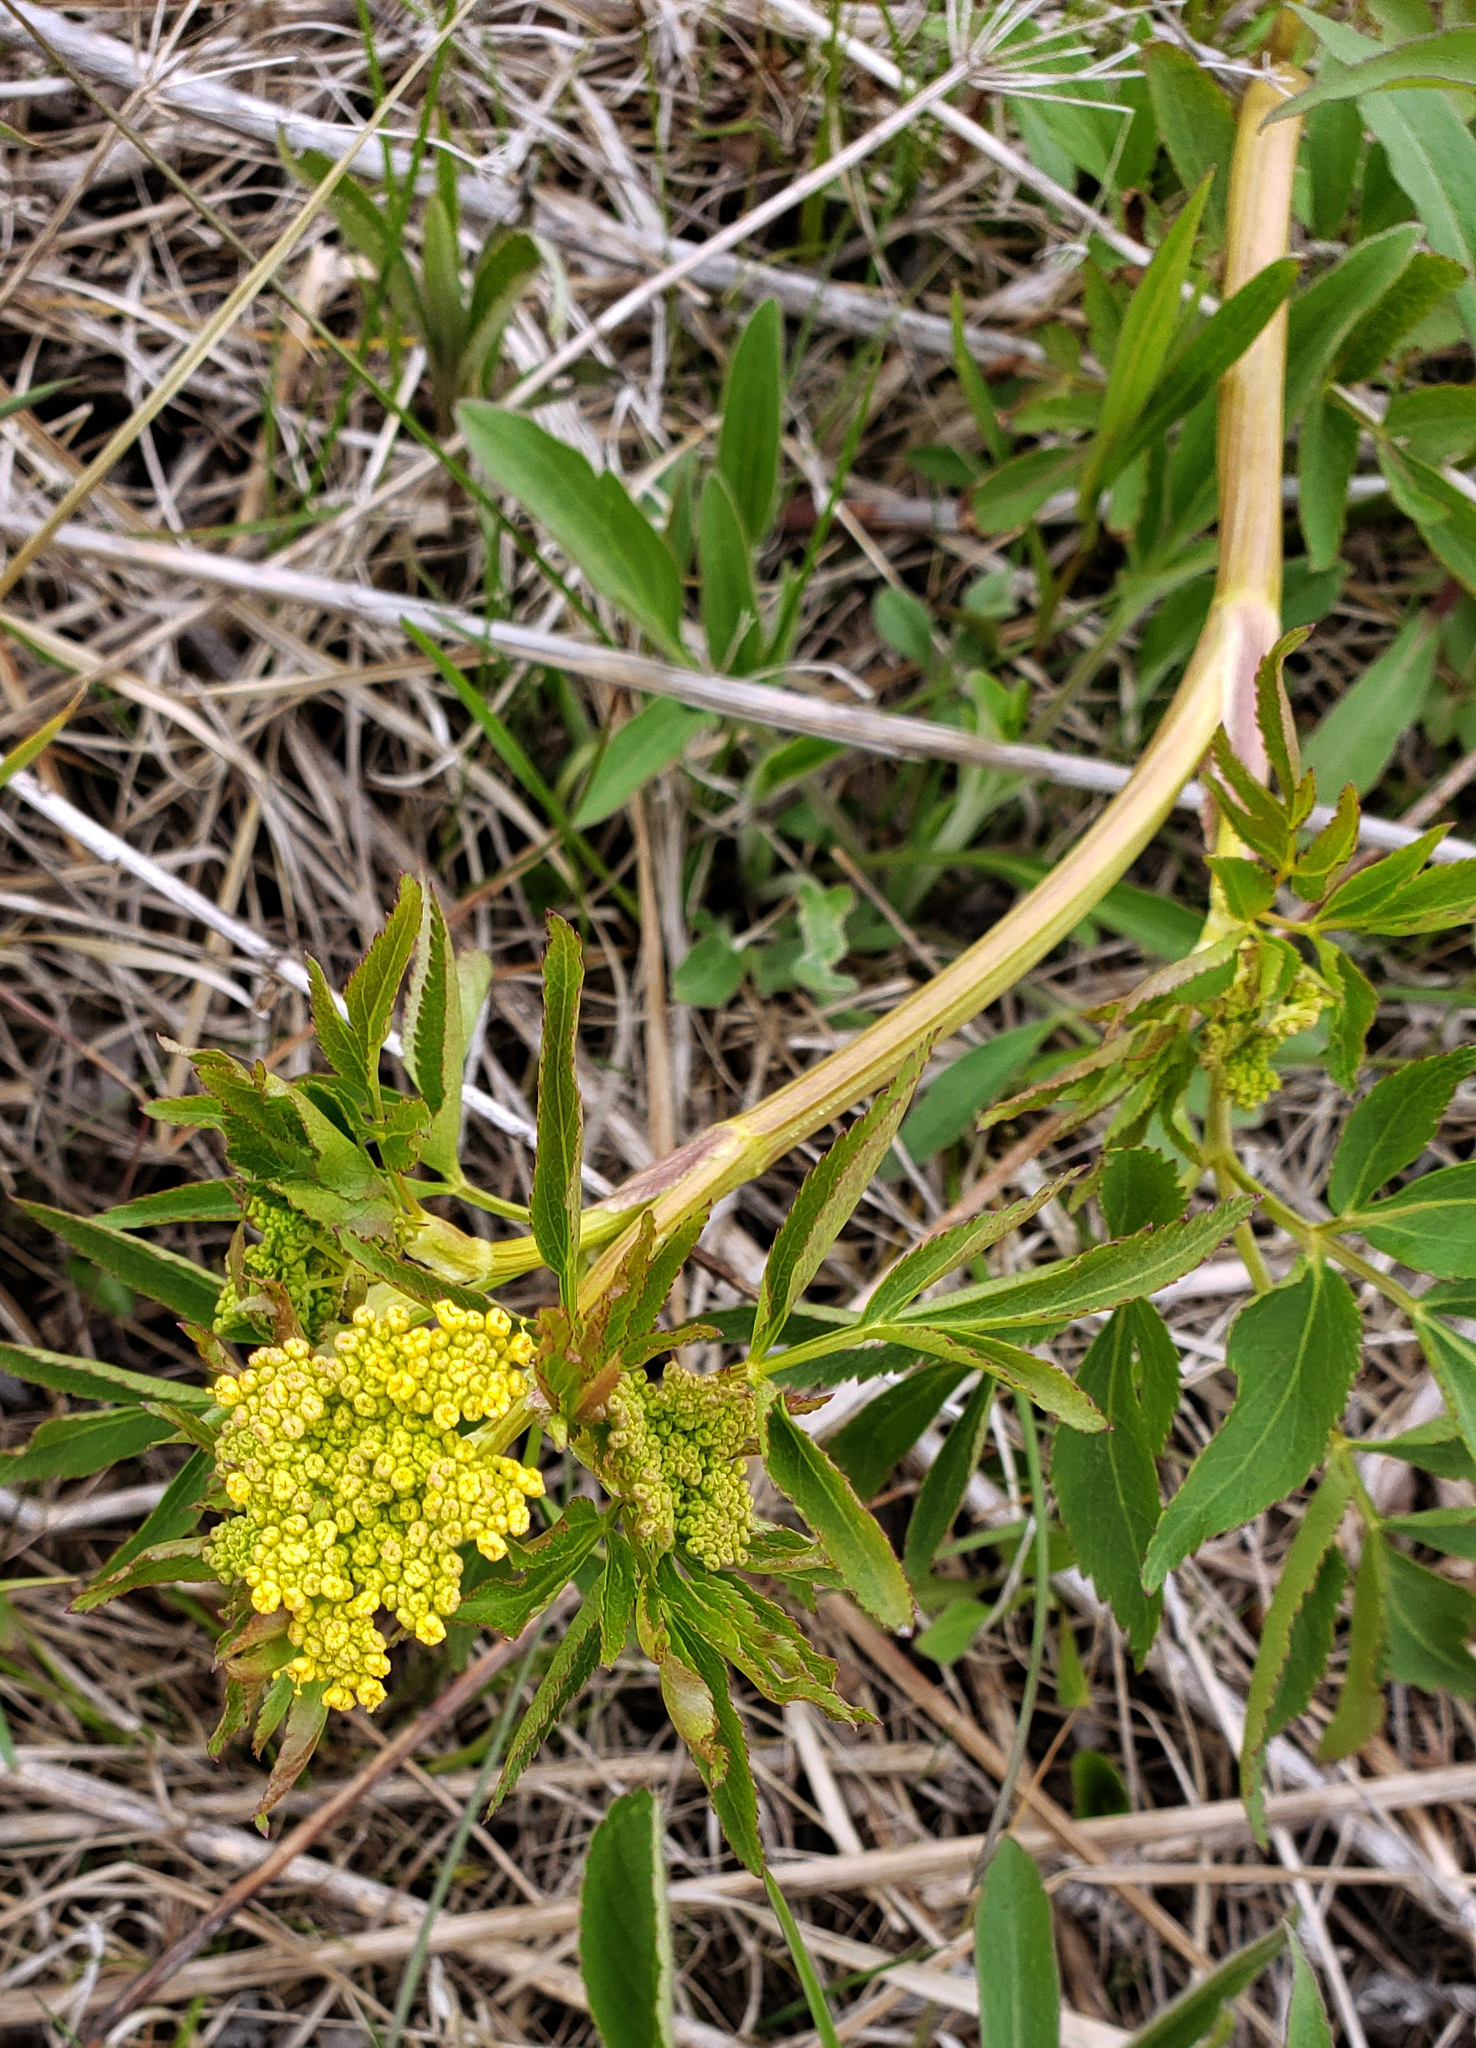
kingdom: Plantae
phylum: Tracheophyta
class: Magnoliopsida
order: Apiales
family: Apiaceae
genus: Zizia
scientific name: Zizia aurea
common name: Golden alexanders
